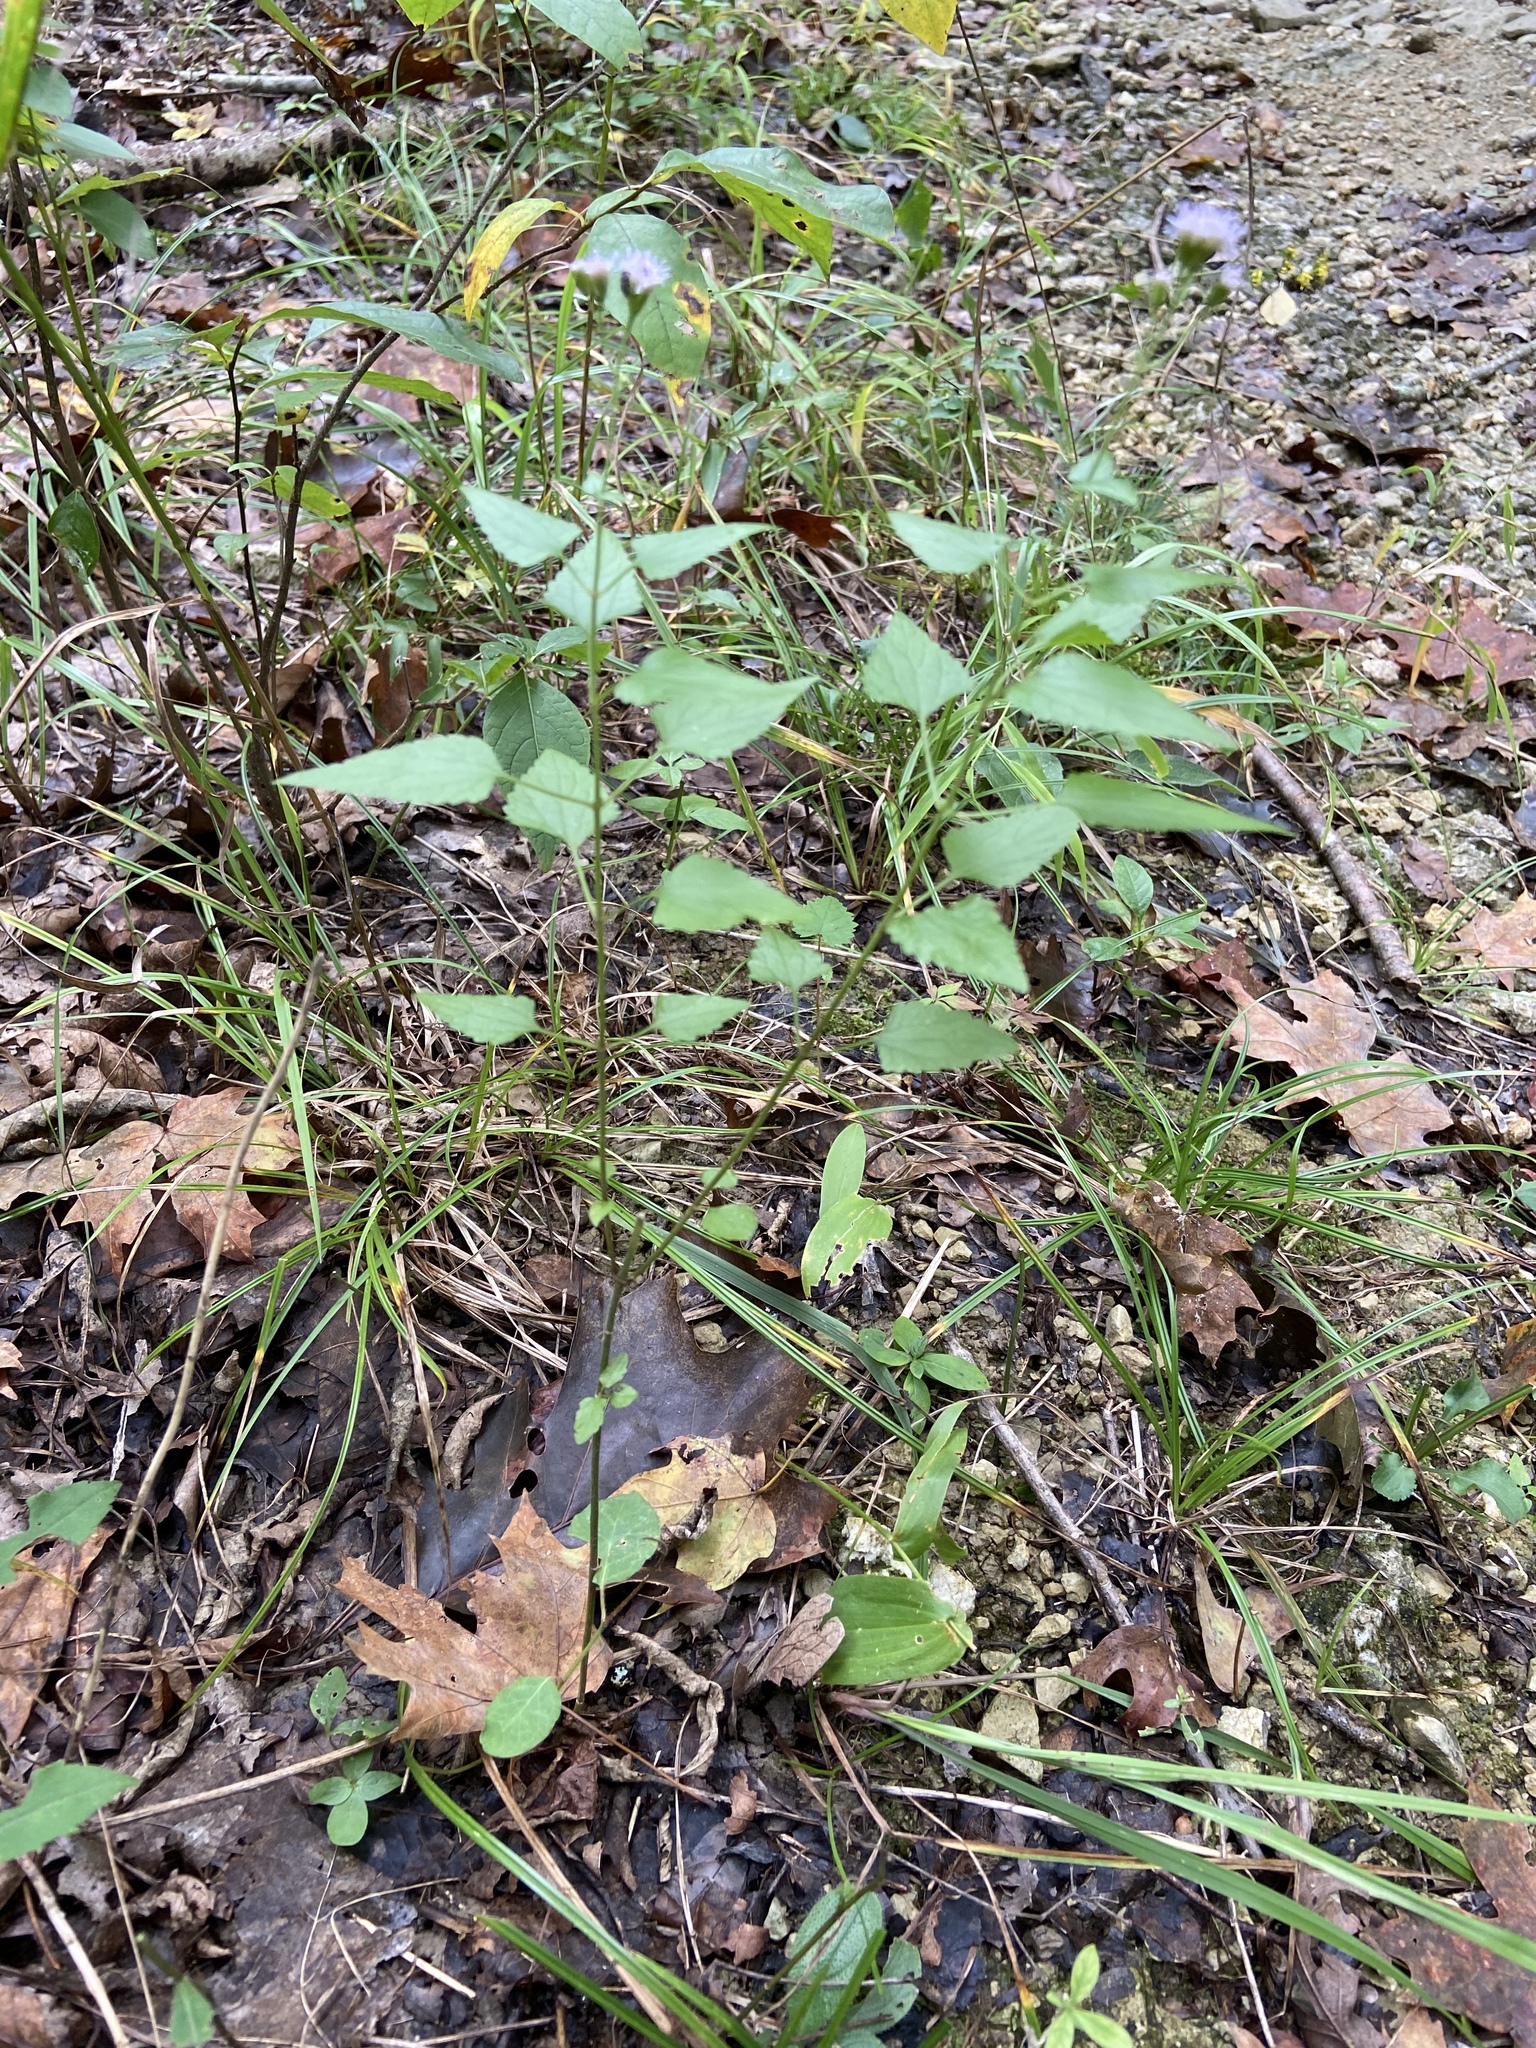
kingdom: Plantae
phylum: Tracheophyta
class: Magnoliopsida
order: Asterales
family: Asteraceae
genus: Fleischmannia
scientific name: Fleischmannia incarnata
